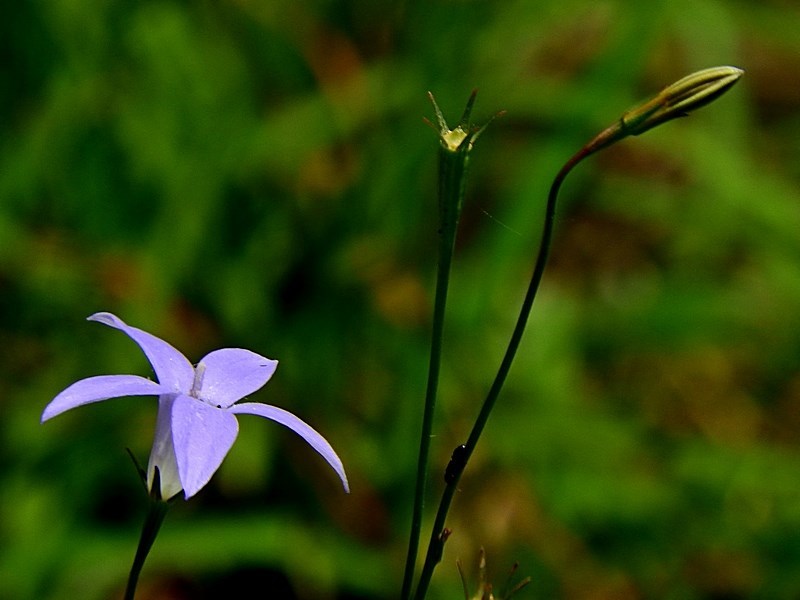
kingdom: Plantae
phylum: Tracheophyta
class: Magnoliopsida
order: Asterales
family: Campanulaceae
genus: Wahlenbergia
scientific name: Wahlenbergia capillaris
